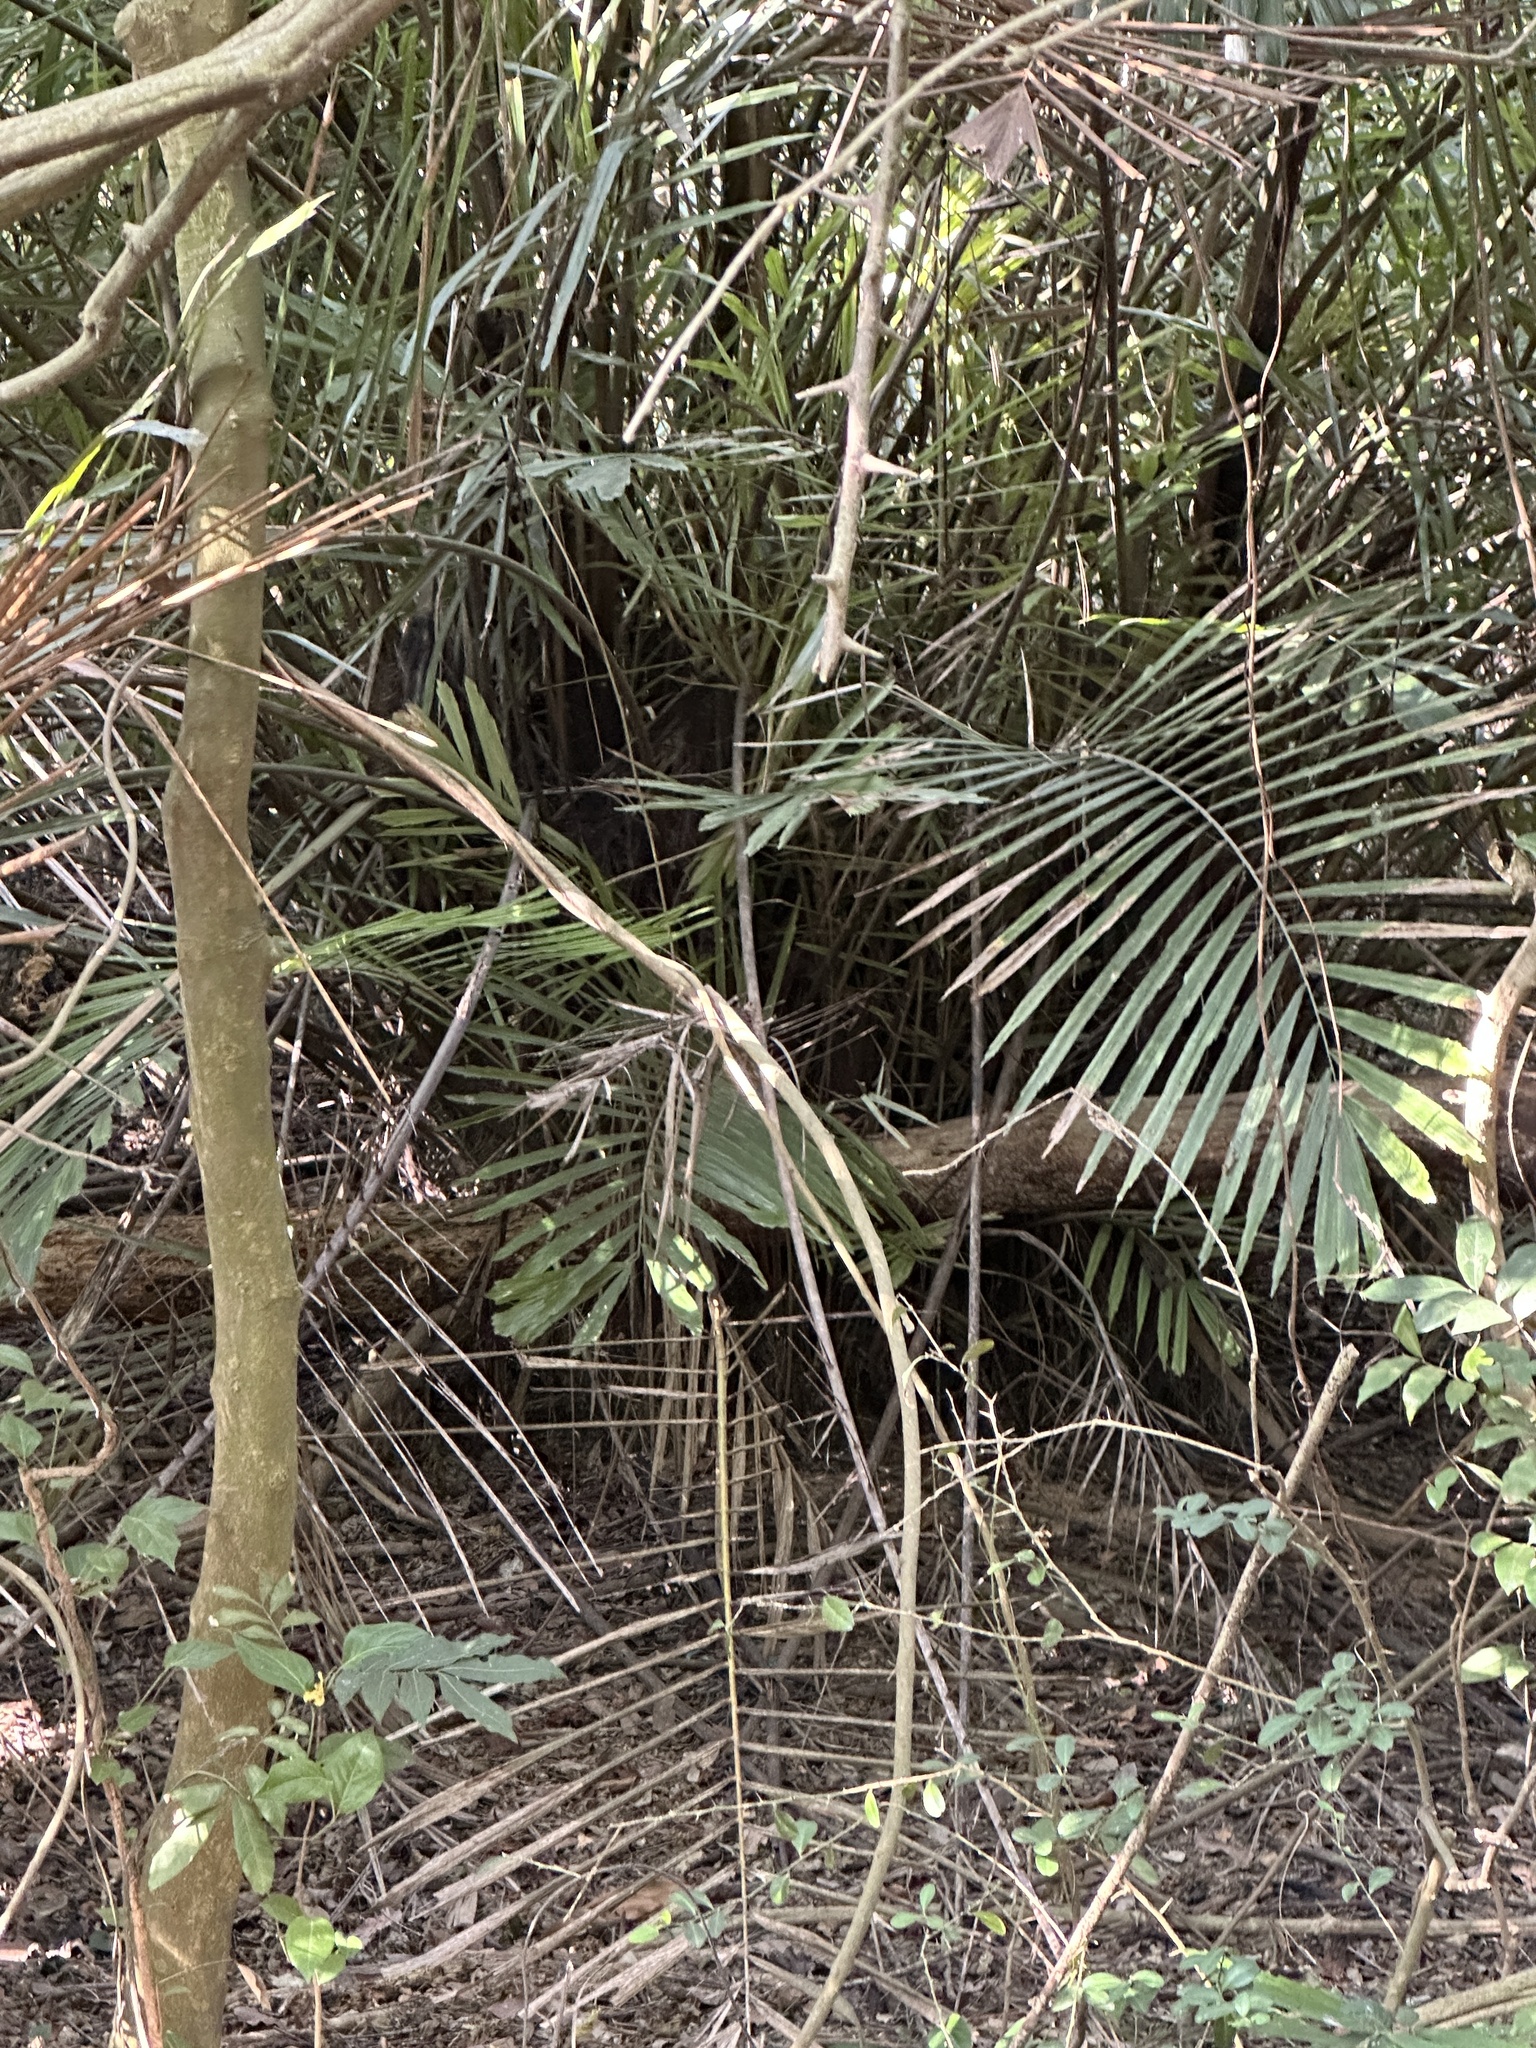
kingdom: Plantae
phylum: Tracheophyta
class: Liliopsida
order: Arecales
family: Arecaceae
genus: Arenga
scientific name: Arenga engleri
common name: Formosan sugar palm
